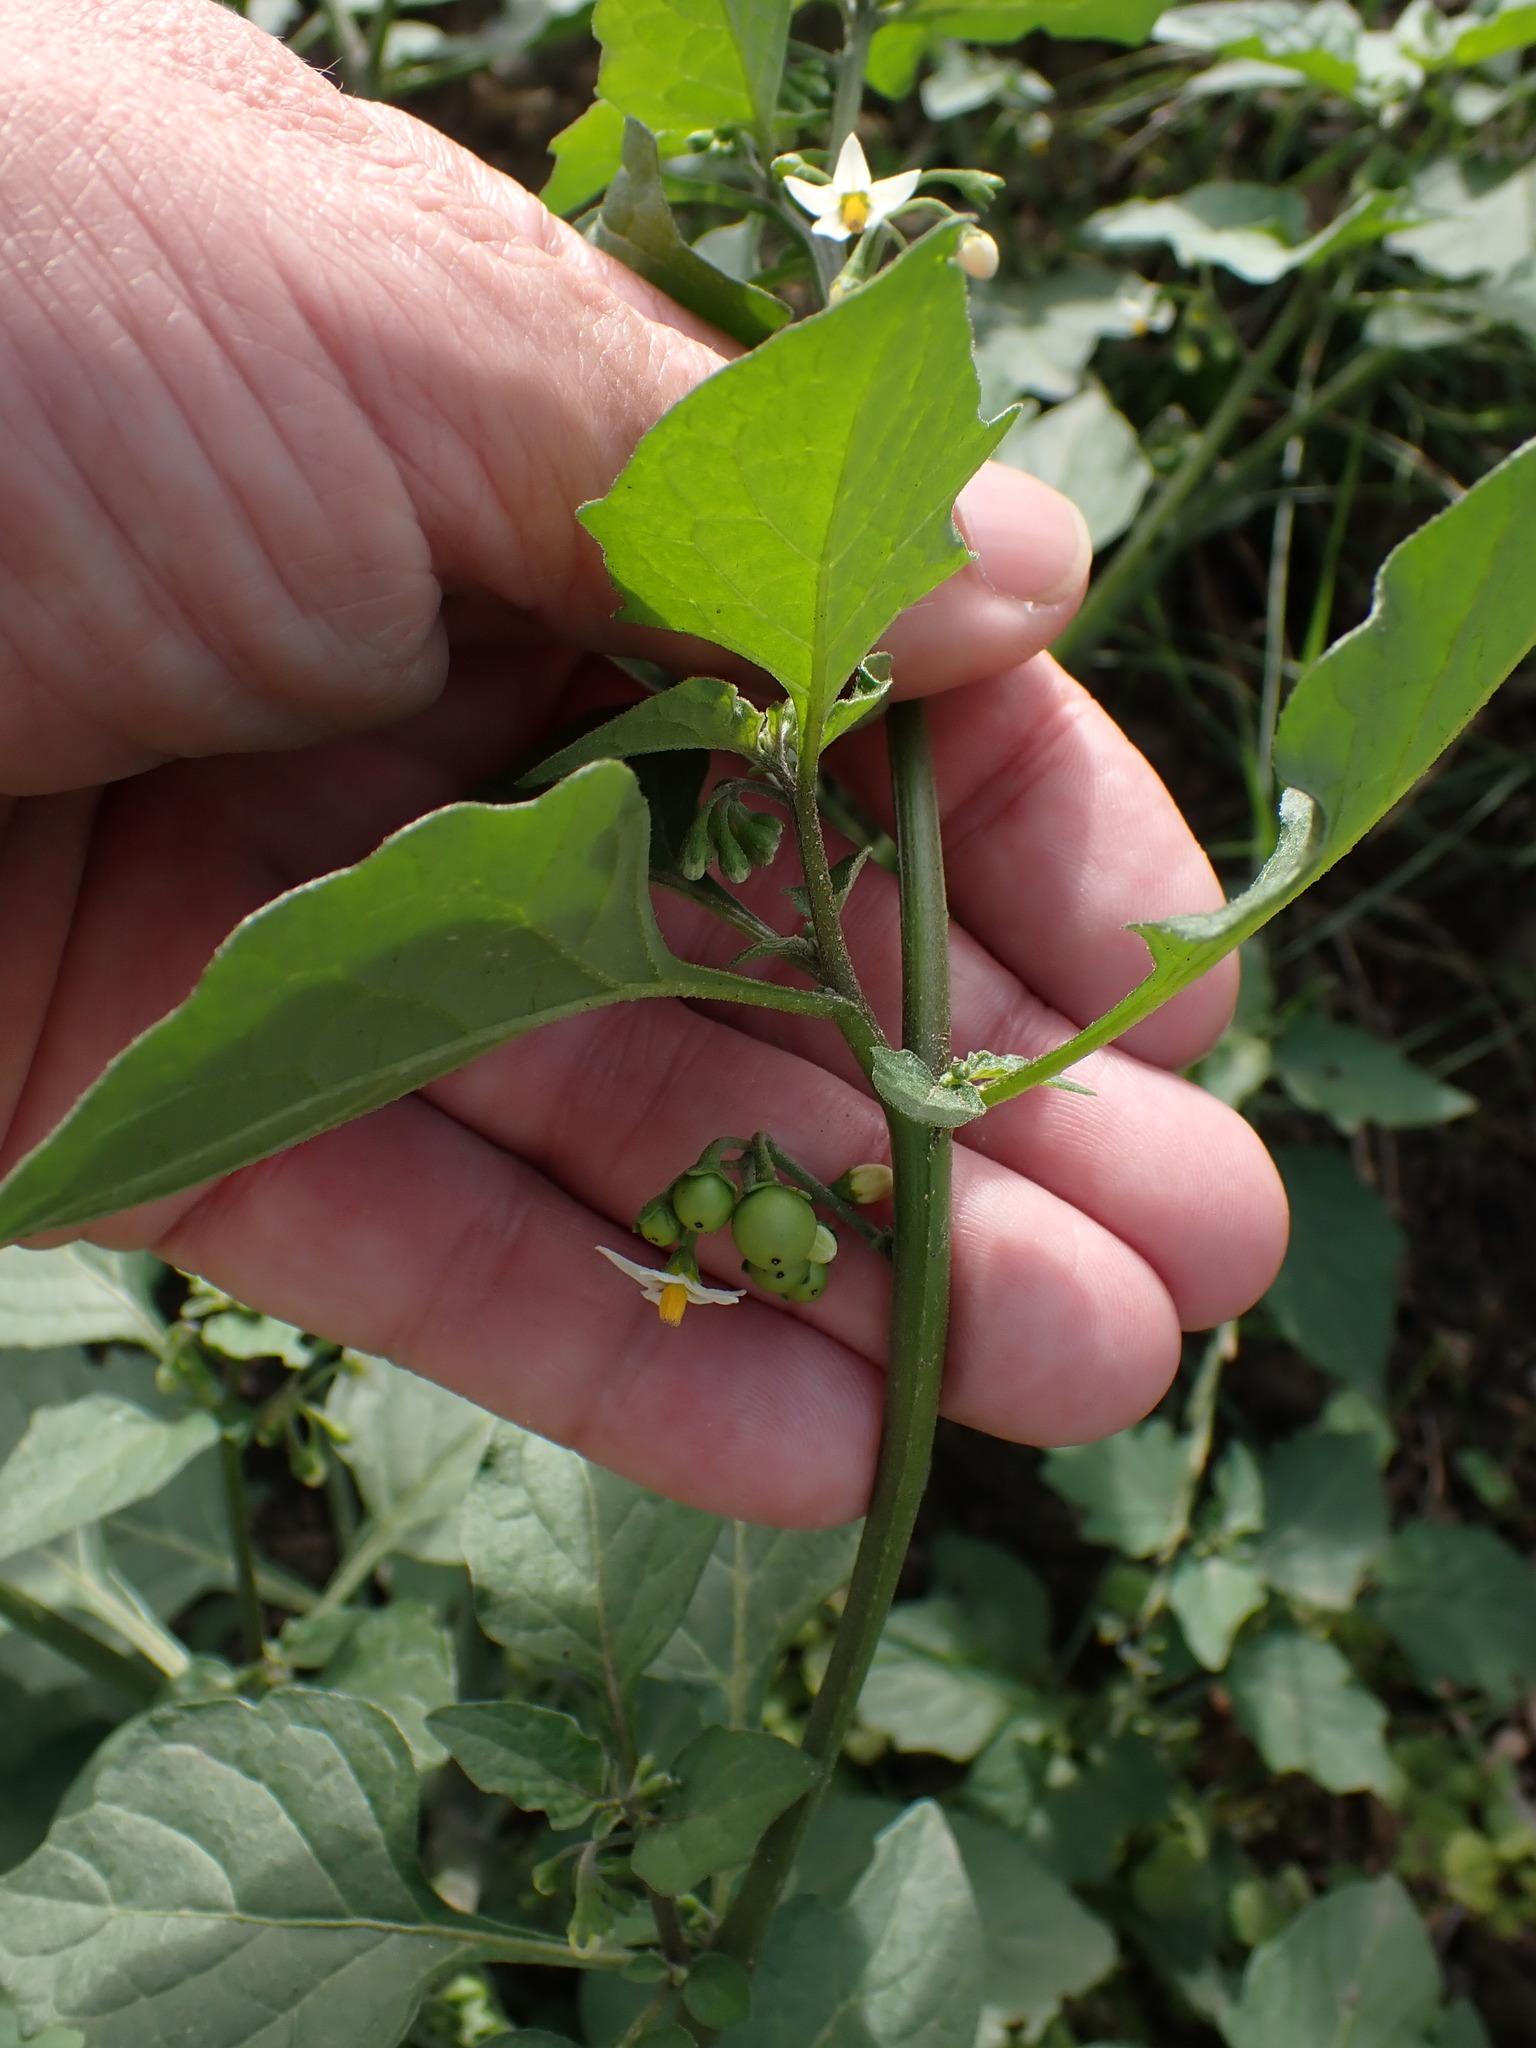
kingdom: Plantae
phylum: Tracheophyta
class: Magnoliopsida
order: Solanales
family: Solanaceae
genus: Solanum
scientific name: Solanum nigrum
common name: Black nightshade
